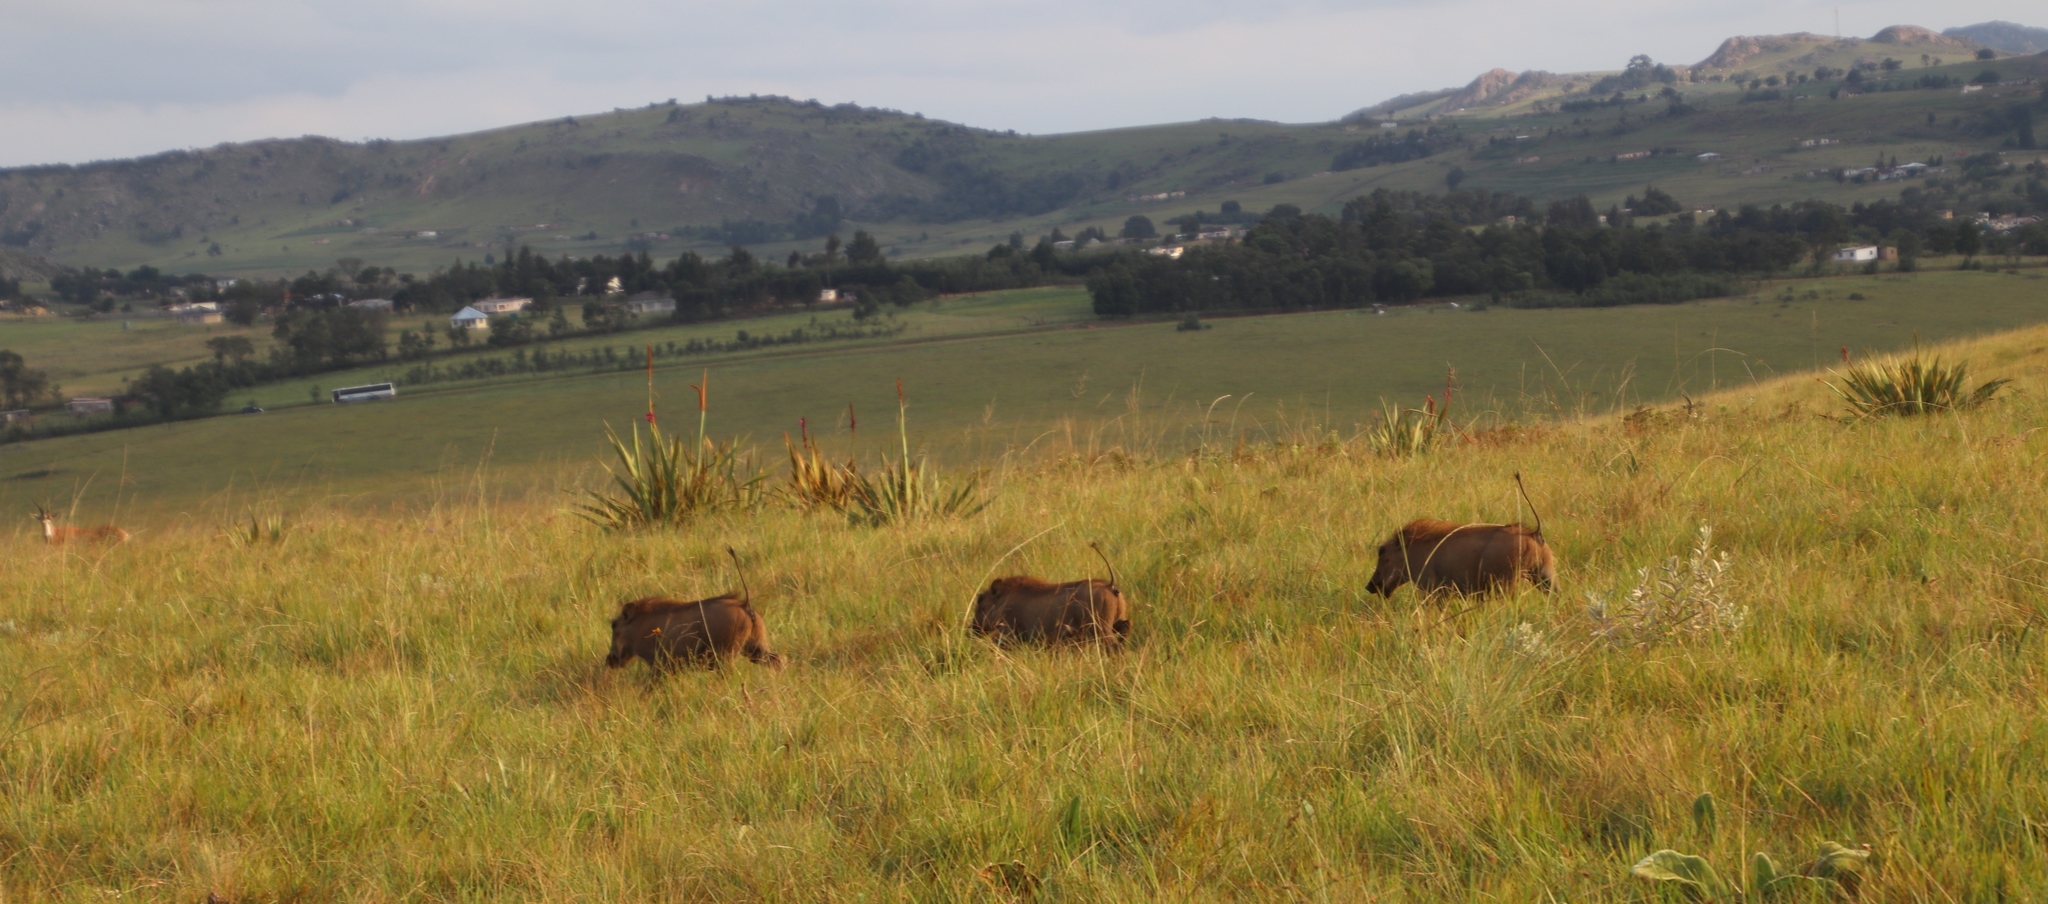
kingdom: Animalia
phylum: Chordata
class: Mammalia
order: Artiodactyla
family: Suidae
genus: Phacochoerus
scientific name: Phacochoerus africanus
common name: Common warthog
